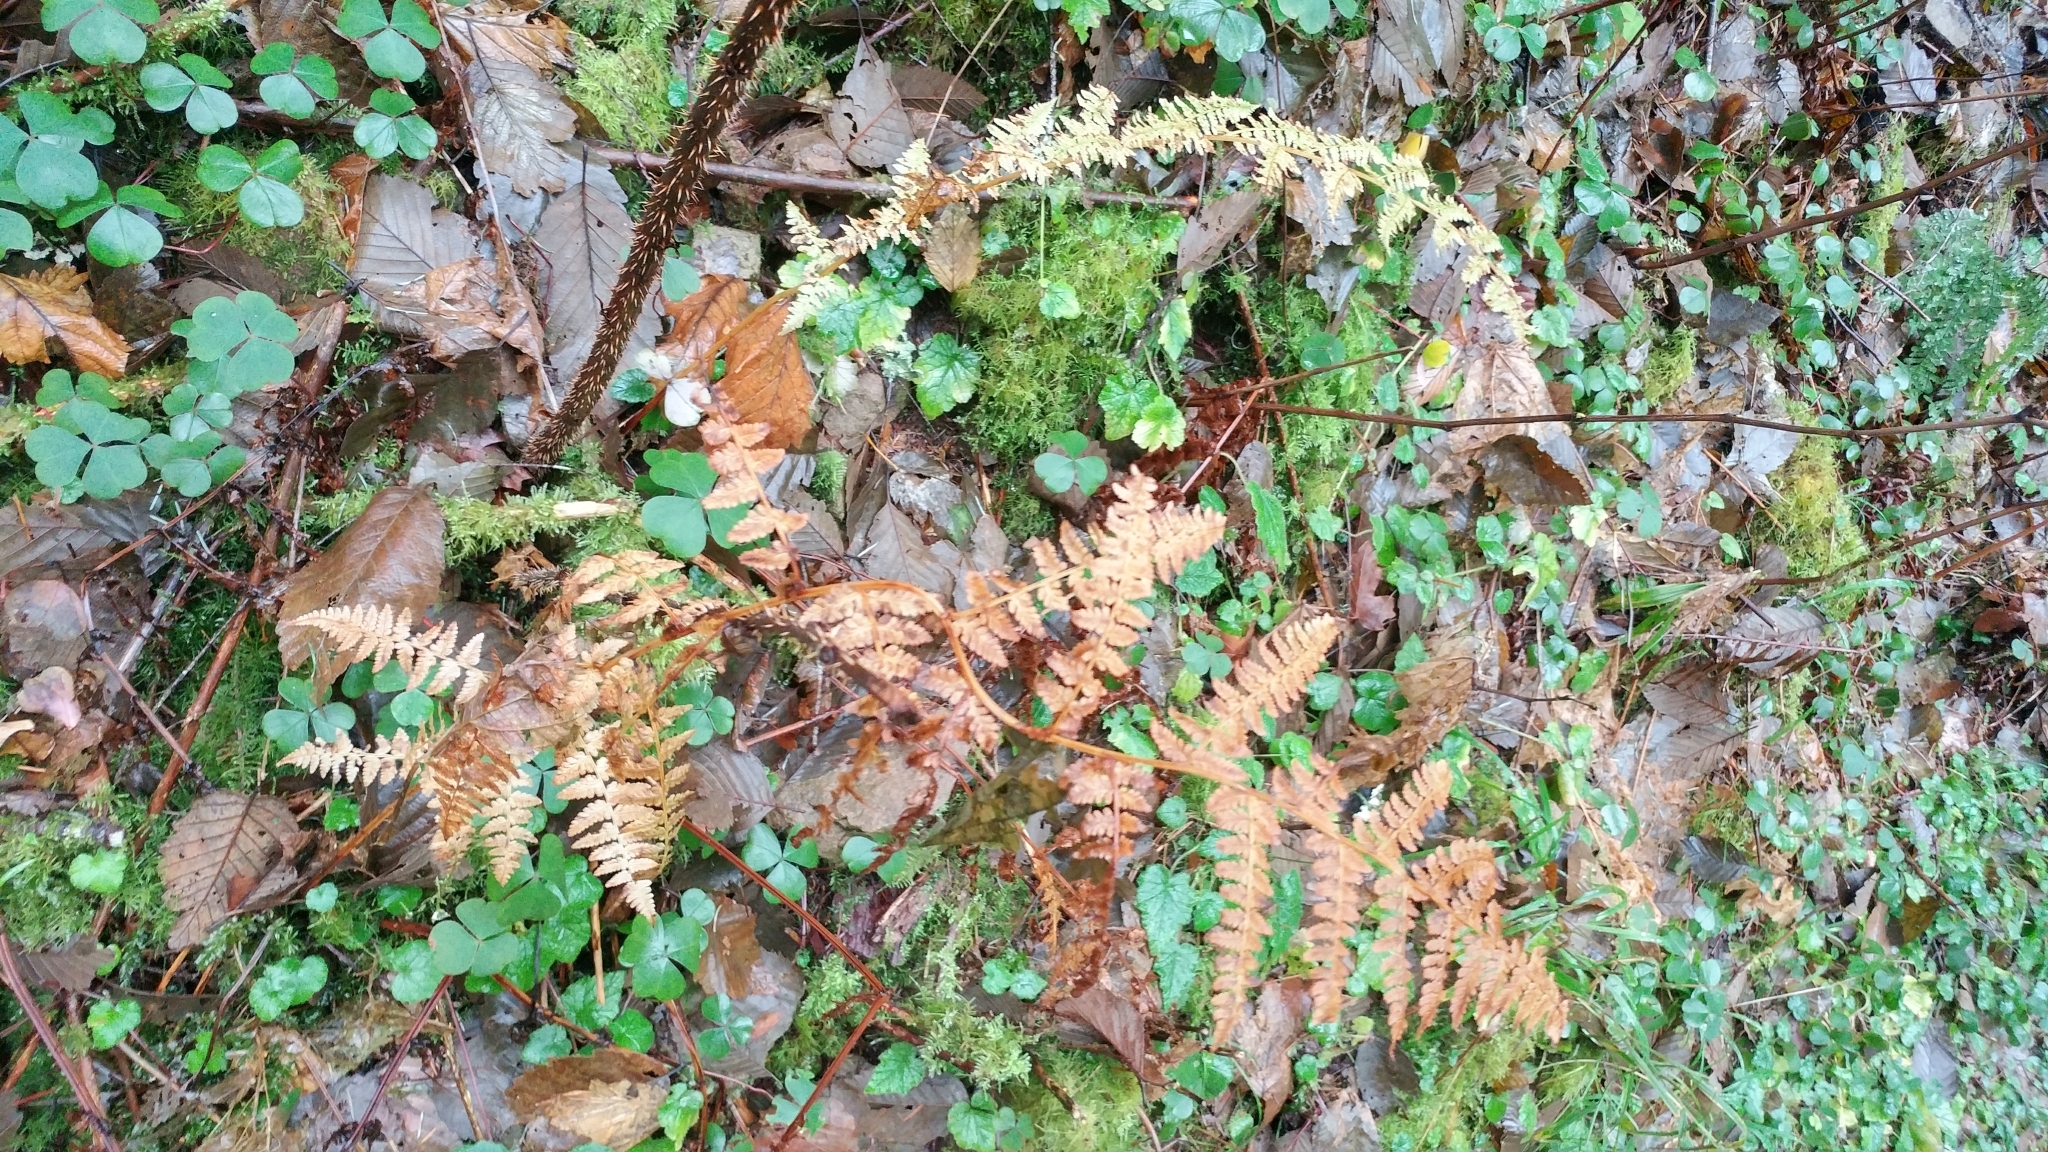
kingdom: Plantae
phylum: Tracheophyta
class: Polypodiopsida
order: Polypodiales
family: Dennstaedtiaceae
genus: Pteridium
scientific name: Pteridium aquilinum
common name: Bracken
